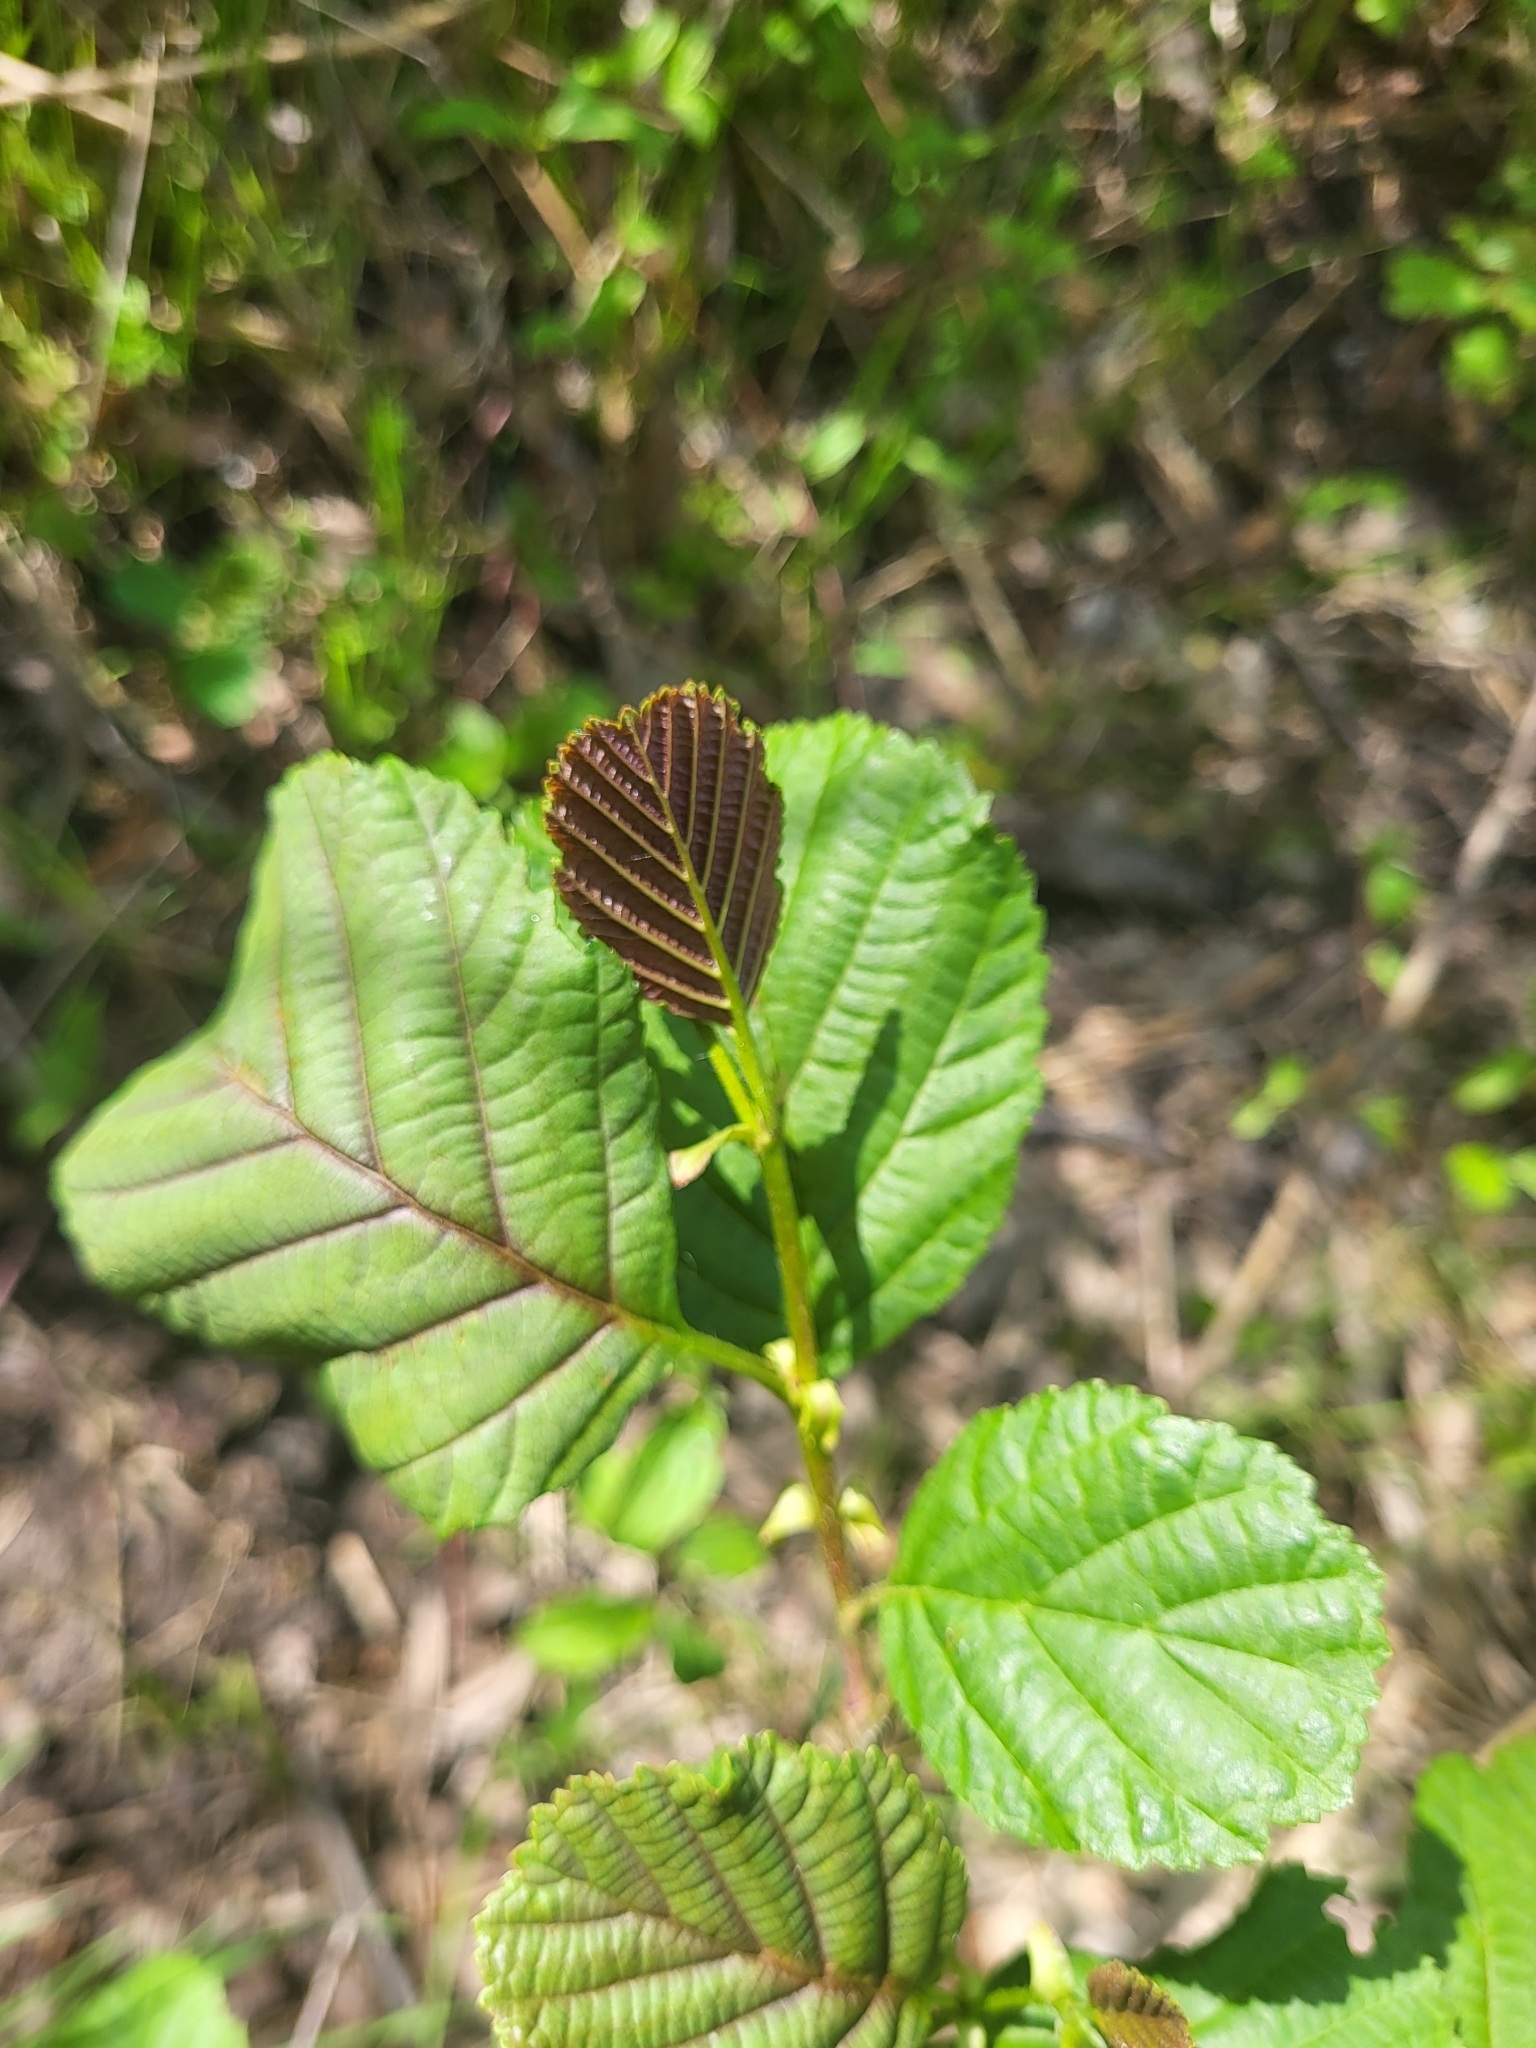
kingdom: Plantae
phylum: Tracheophyta
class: Magnoliopsida
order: Fagales
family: Betulaceae
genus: Alnus
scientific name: Alnus glutinosa
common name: Black alder
